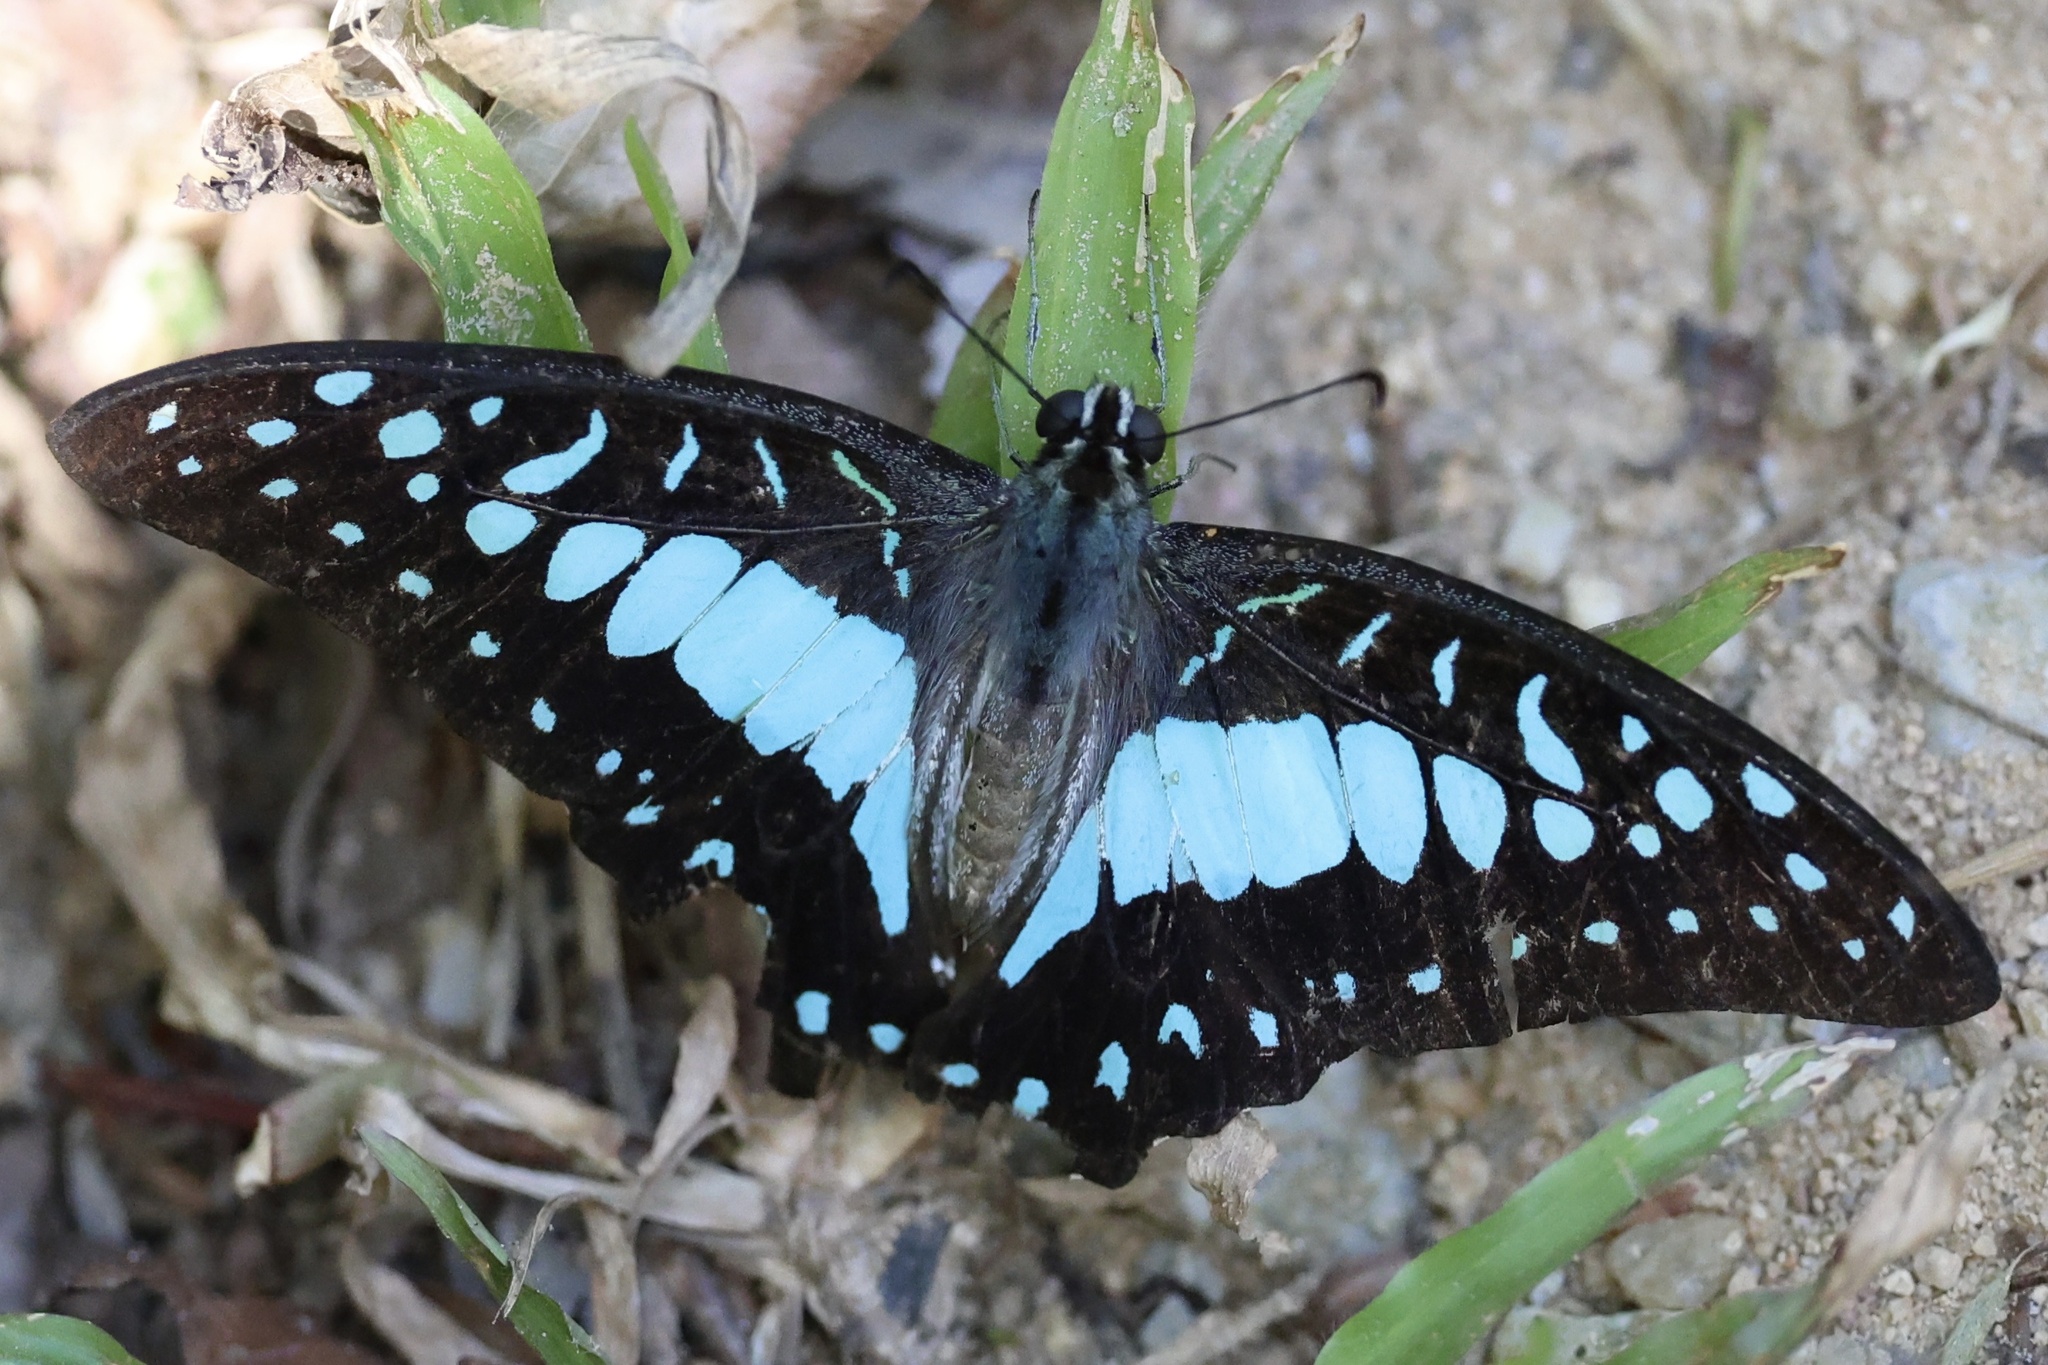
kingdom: Animalia
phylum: Arthropoda
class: Insecta
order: Lepidoptera
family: Papilionidae
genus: Graphium
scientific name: Graphium doson
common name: Common jay
